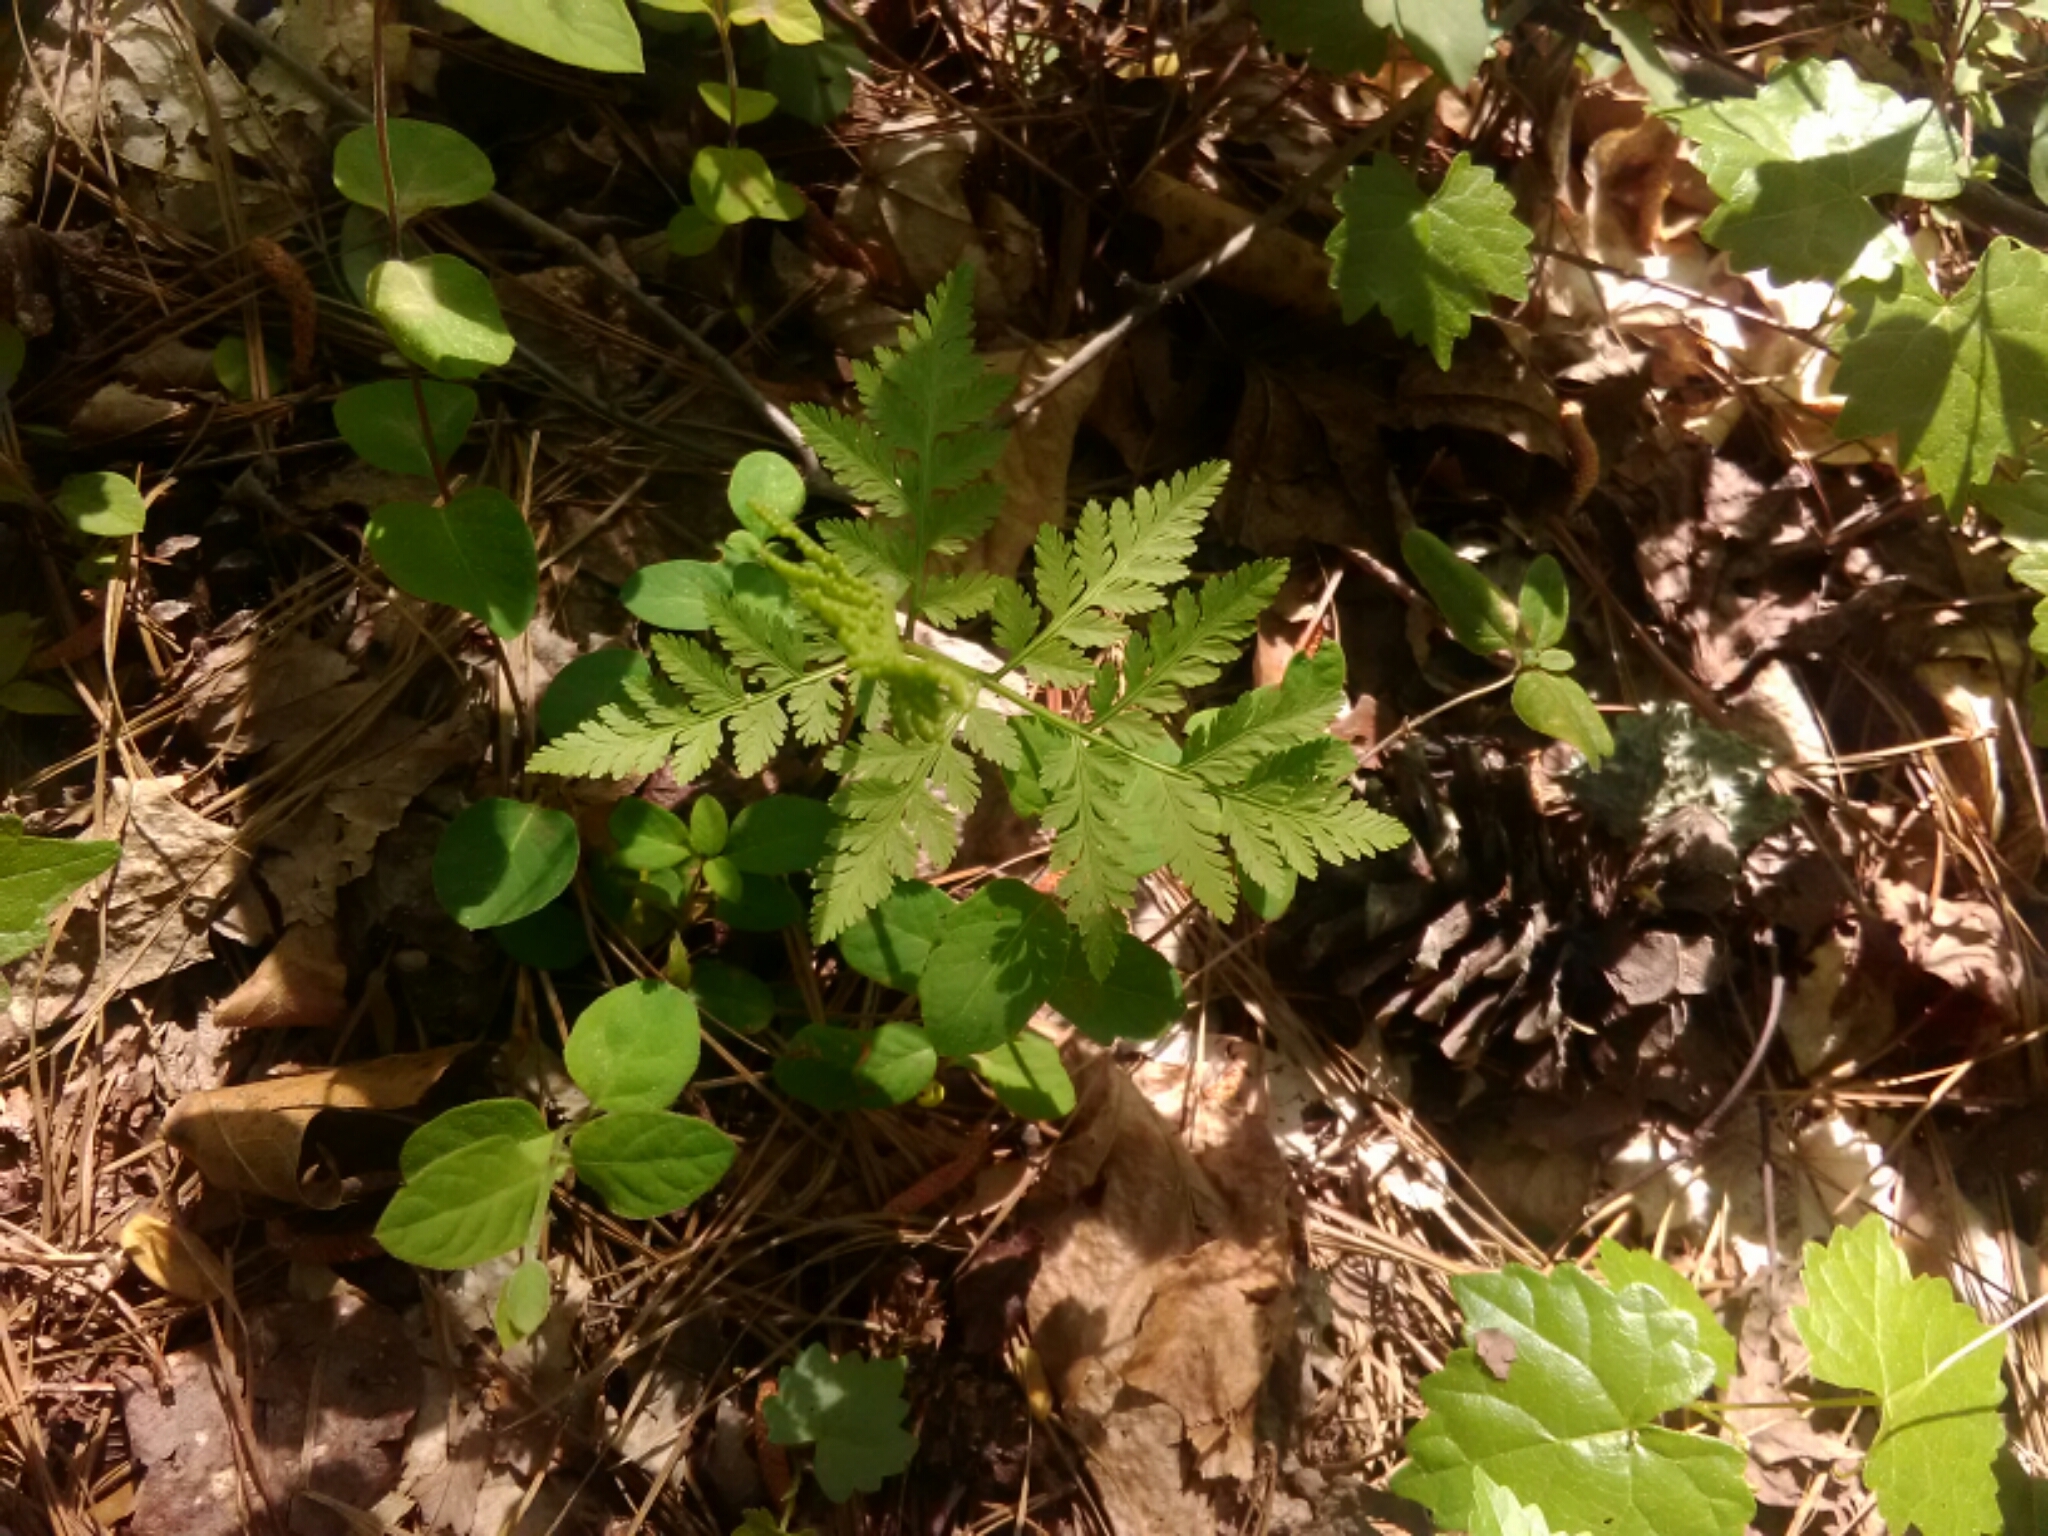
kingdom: Plantae
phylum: Tracheophyta
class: Polypodiopsida
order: Ophioglossales
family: Ophioglossaceae
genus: Botrypus
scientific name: Botrypus virginianus
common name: Common grapefern
